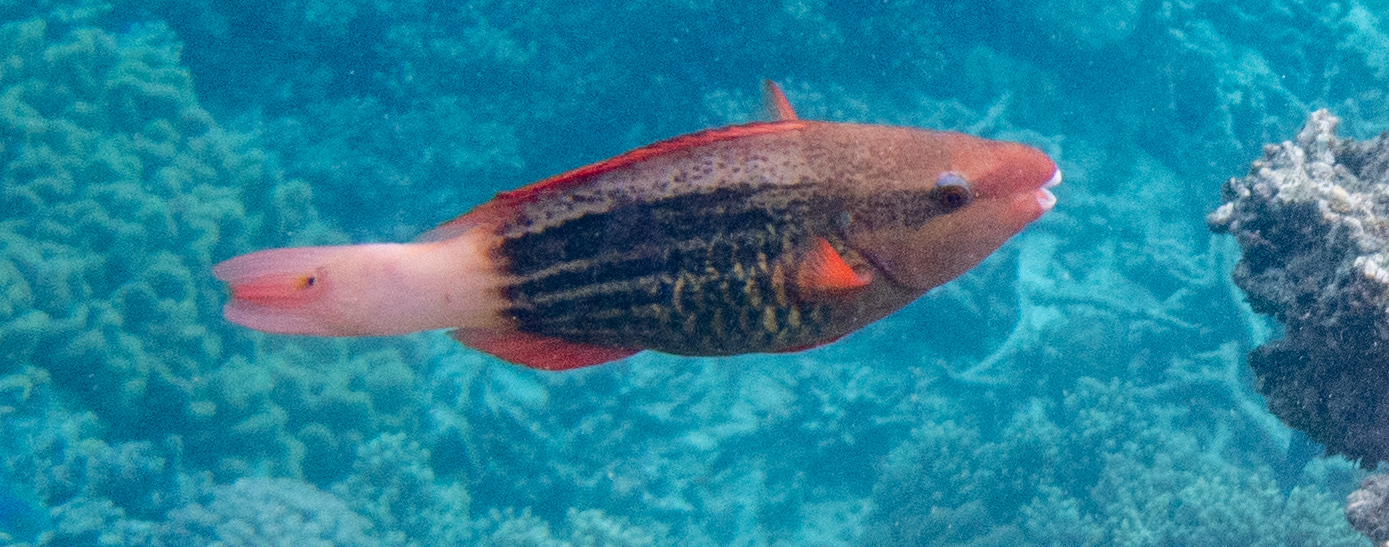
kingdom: Animalia
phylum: Chordata
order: Perciformes
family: Scaridae
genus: Scarus
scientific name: Scarus frenatus
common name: Bridled parrotfish
